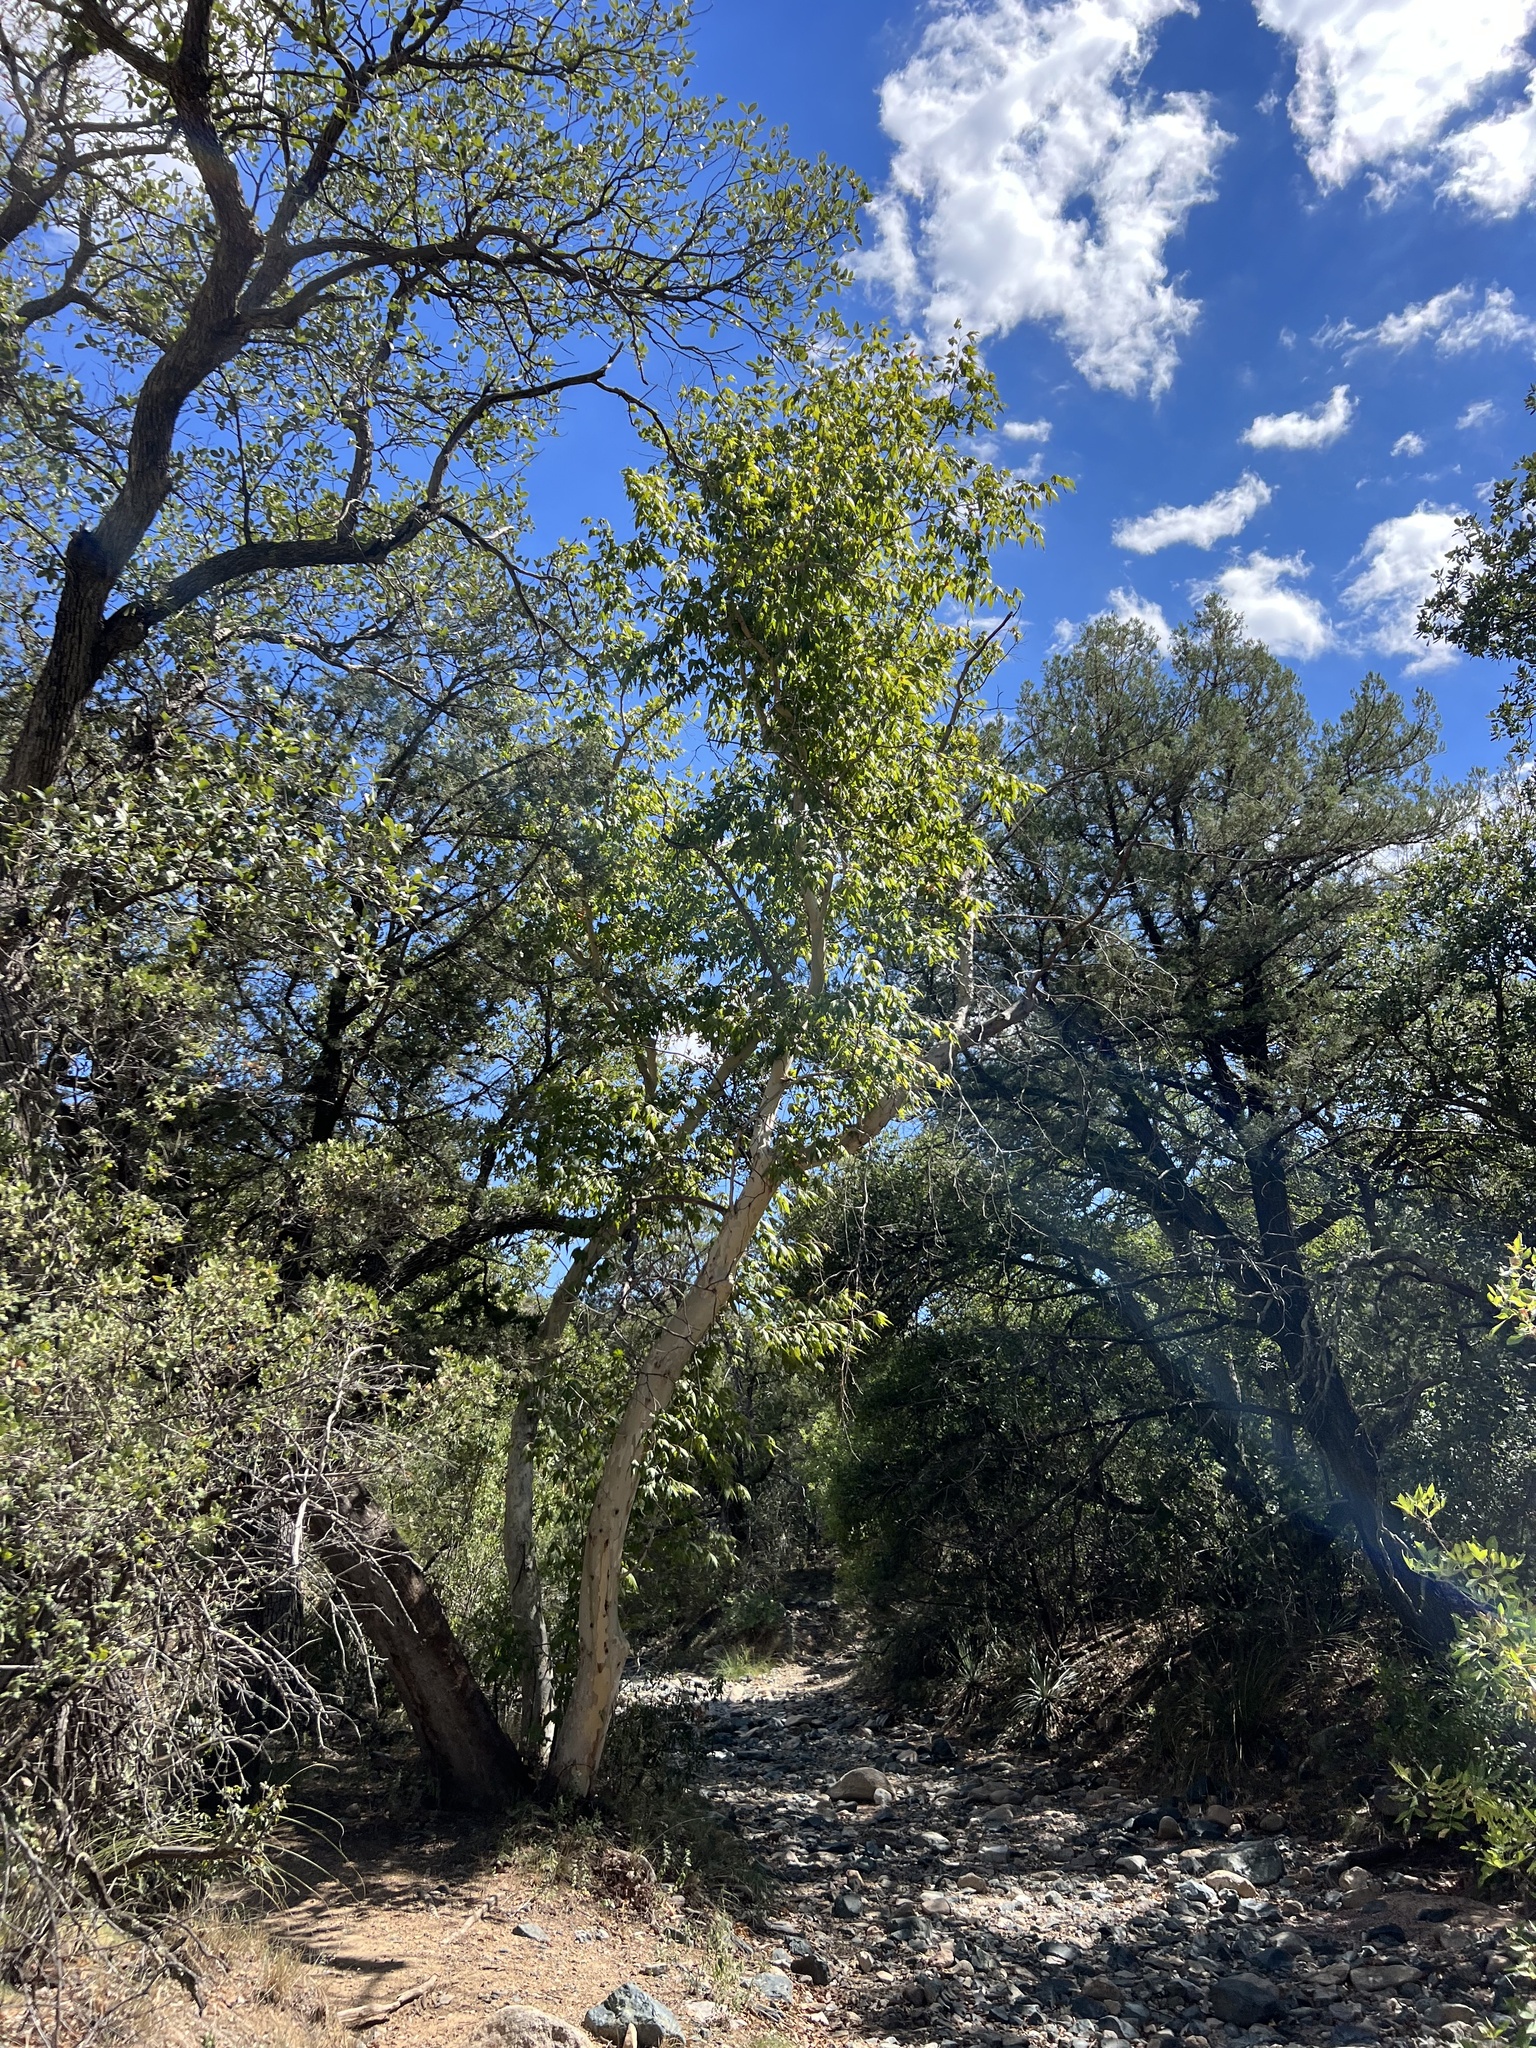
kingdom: Plantae
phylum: Tracheophyta
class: Magnoliopsida
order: Proteales
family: Platanaceae
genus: Platanus
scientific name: Platanus wrightii
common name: Arizona sycamore
